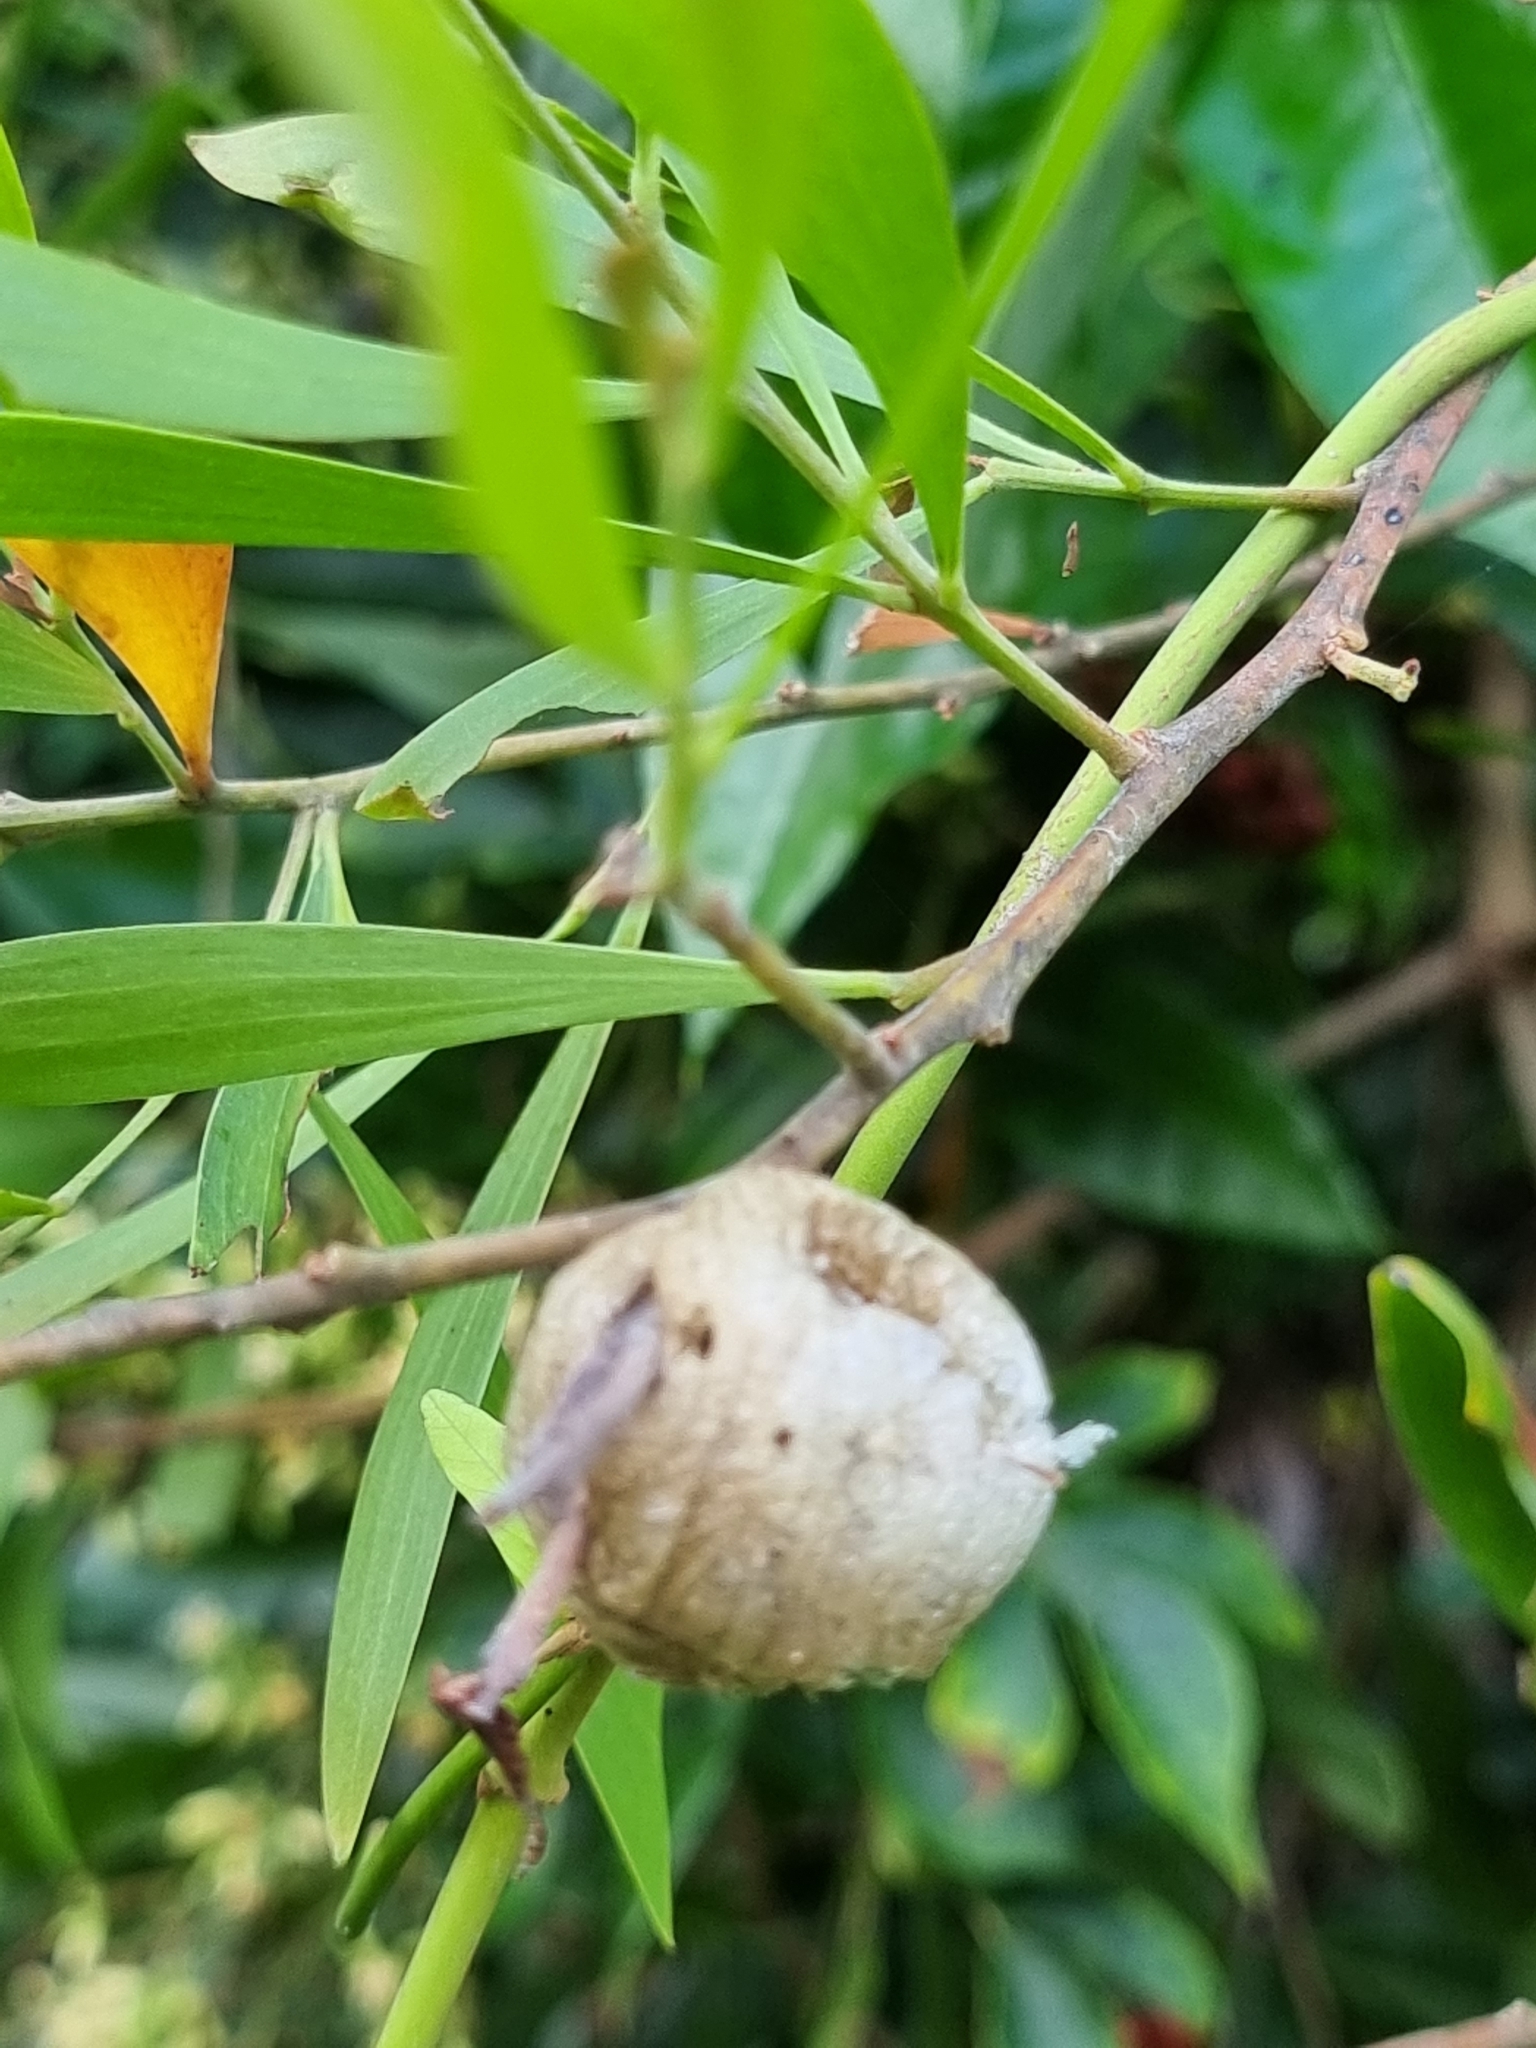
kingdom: Animalia
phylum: Arthropoda
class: Insecta
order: Mantodea
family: Mantidae
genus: Archimantis
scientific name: Archimantis latistyla
